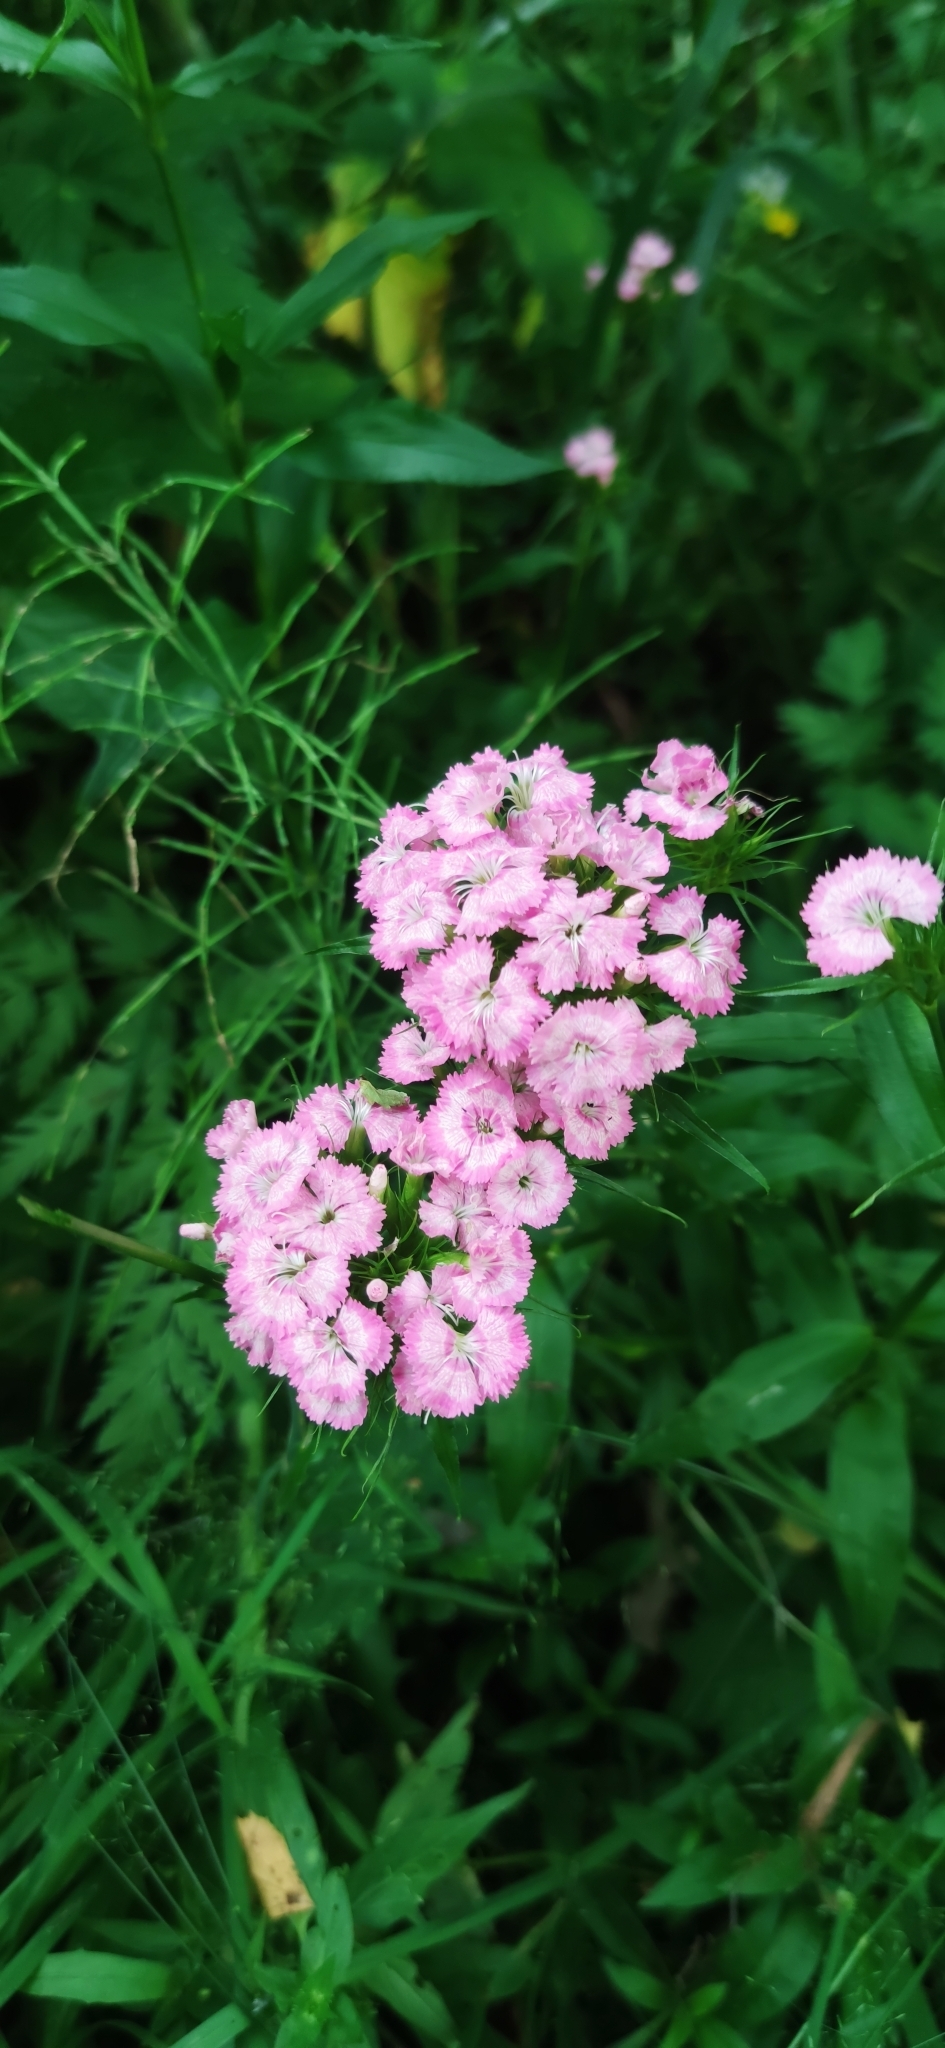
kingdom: Plantae
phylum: Tracheophyta
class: Magnoliopsida
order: Caryophyllales
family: Caryophyllaceae
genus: Dianthus
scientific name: Dianthus barbatus
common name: Sweet-william
